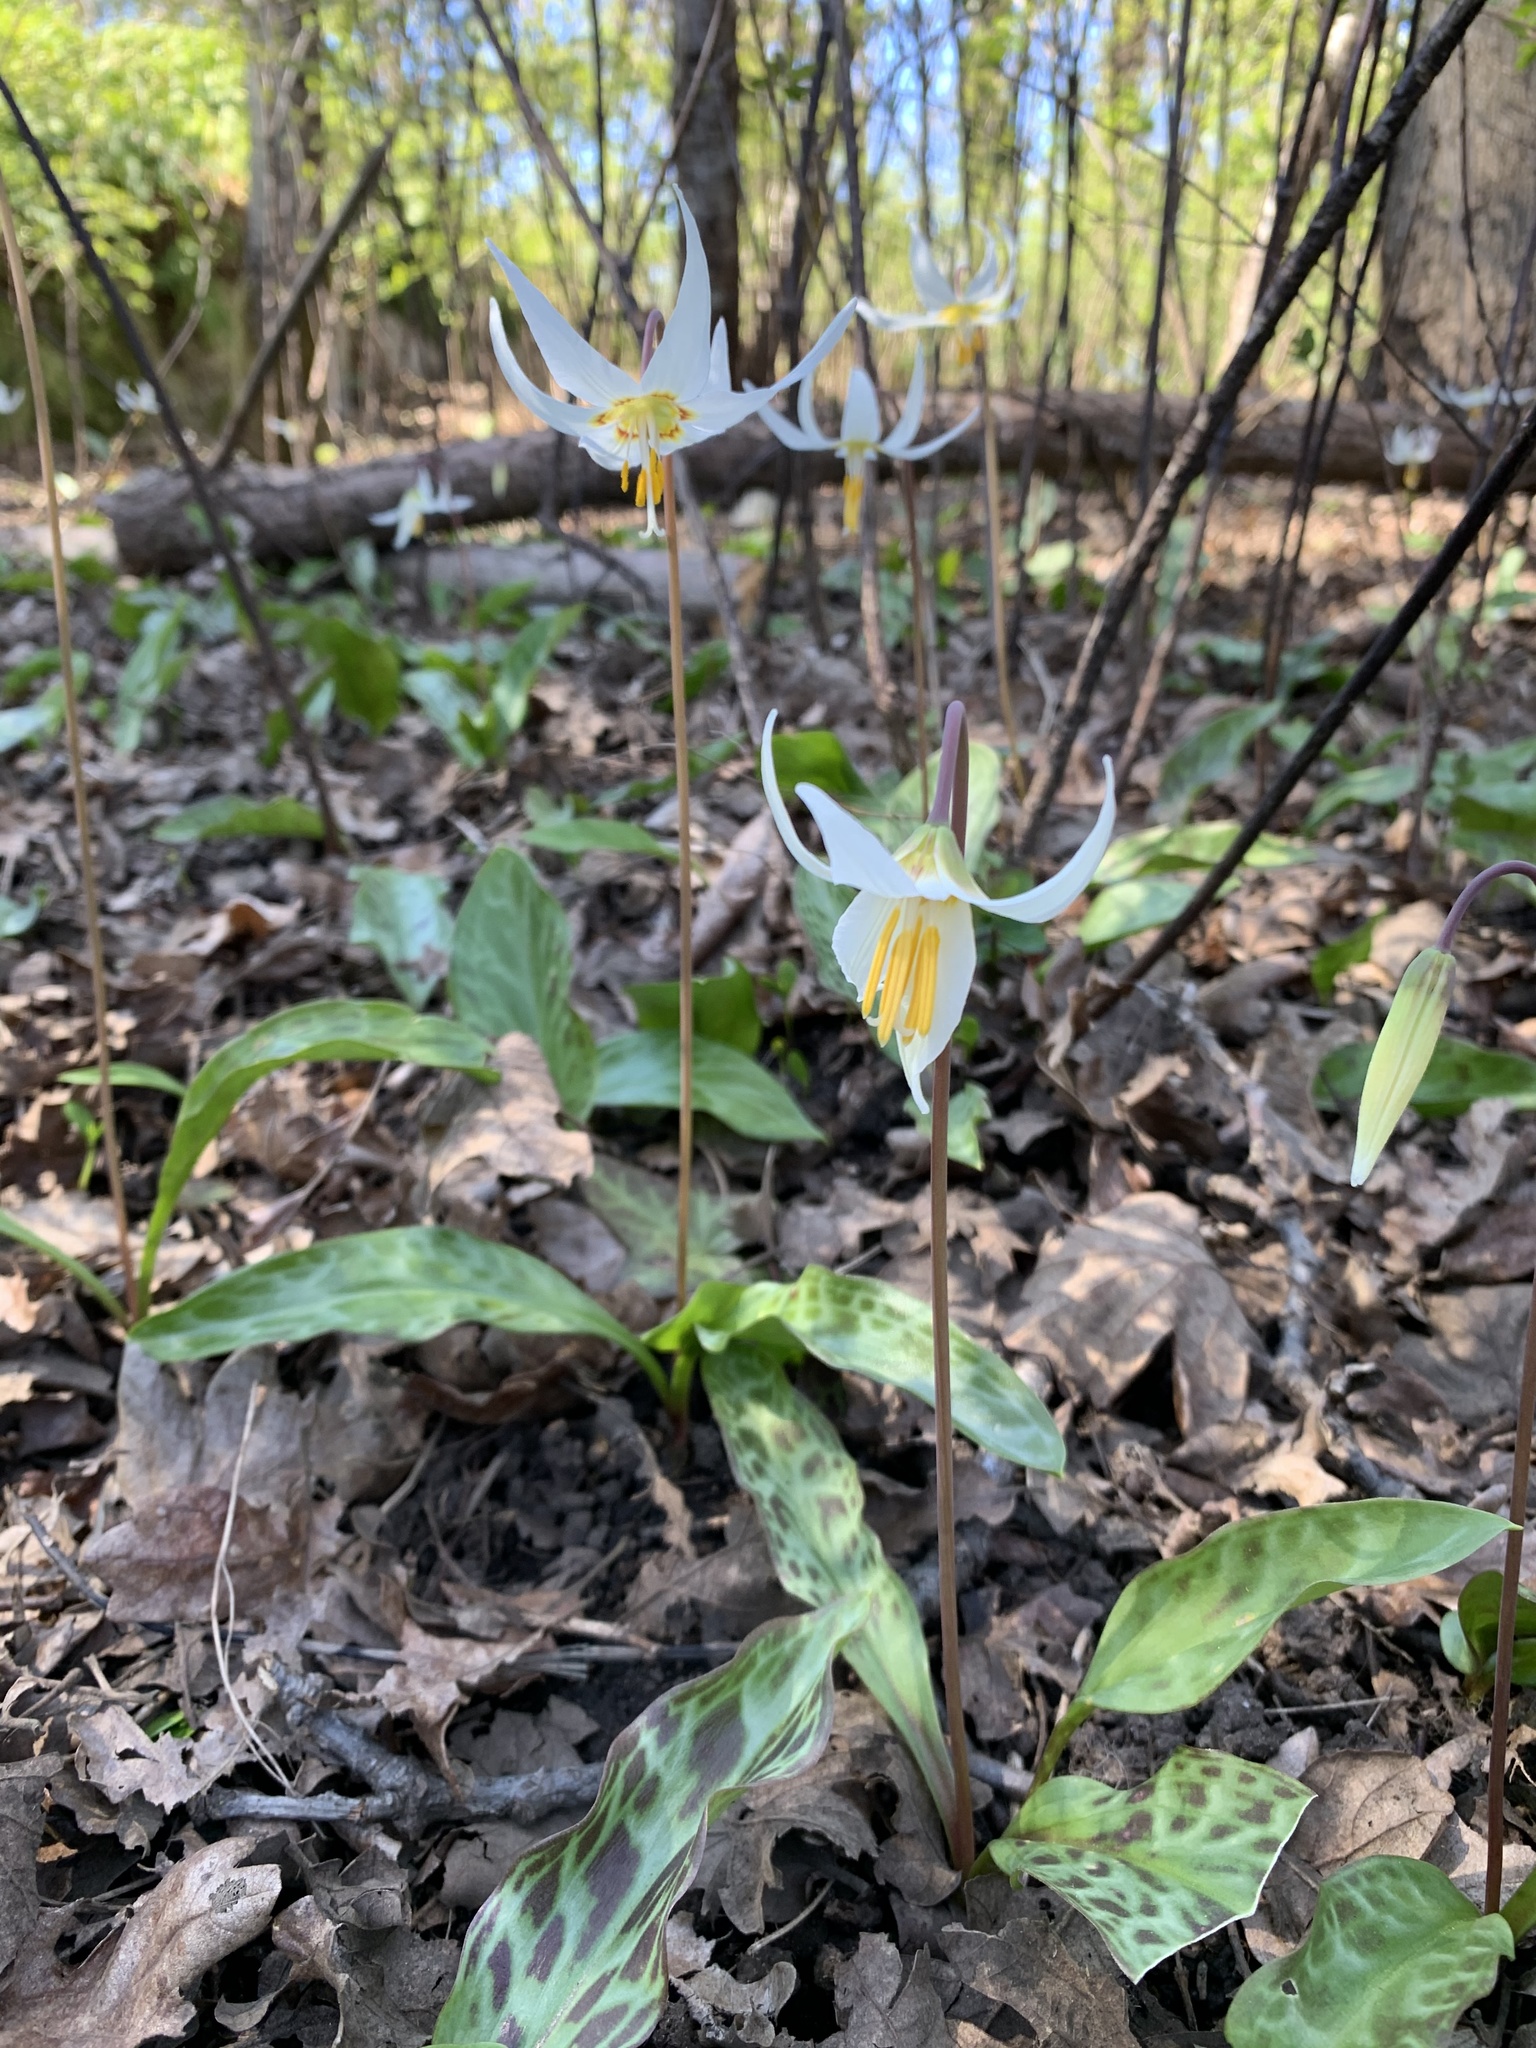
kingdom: Plantae
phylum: Tracheophyta
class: Liliopsida
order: Liliales
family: Liliaceae
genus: Erythronium
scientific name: Erythronium oregonum
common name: Giant adder's-tongue
